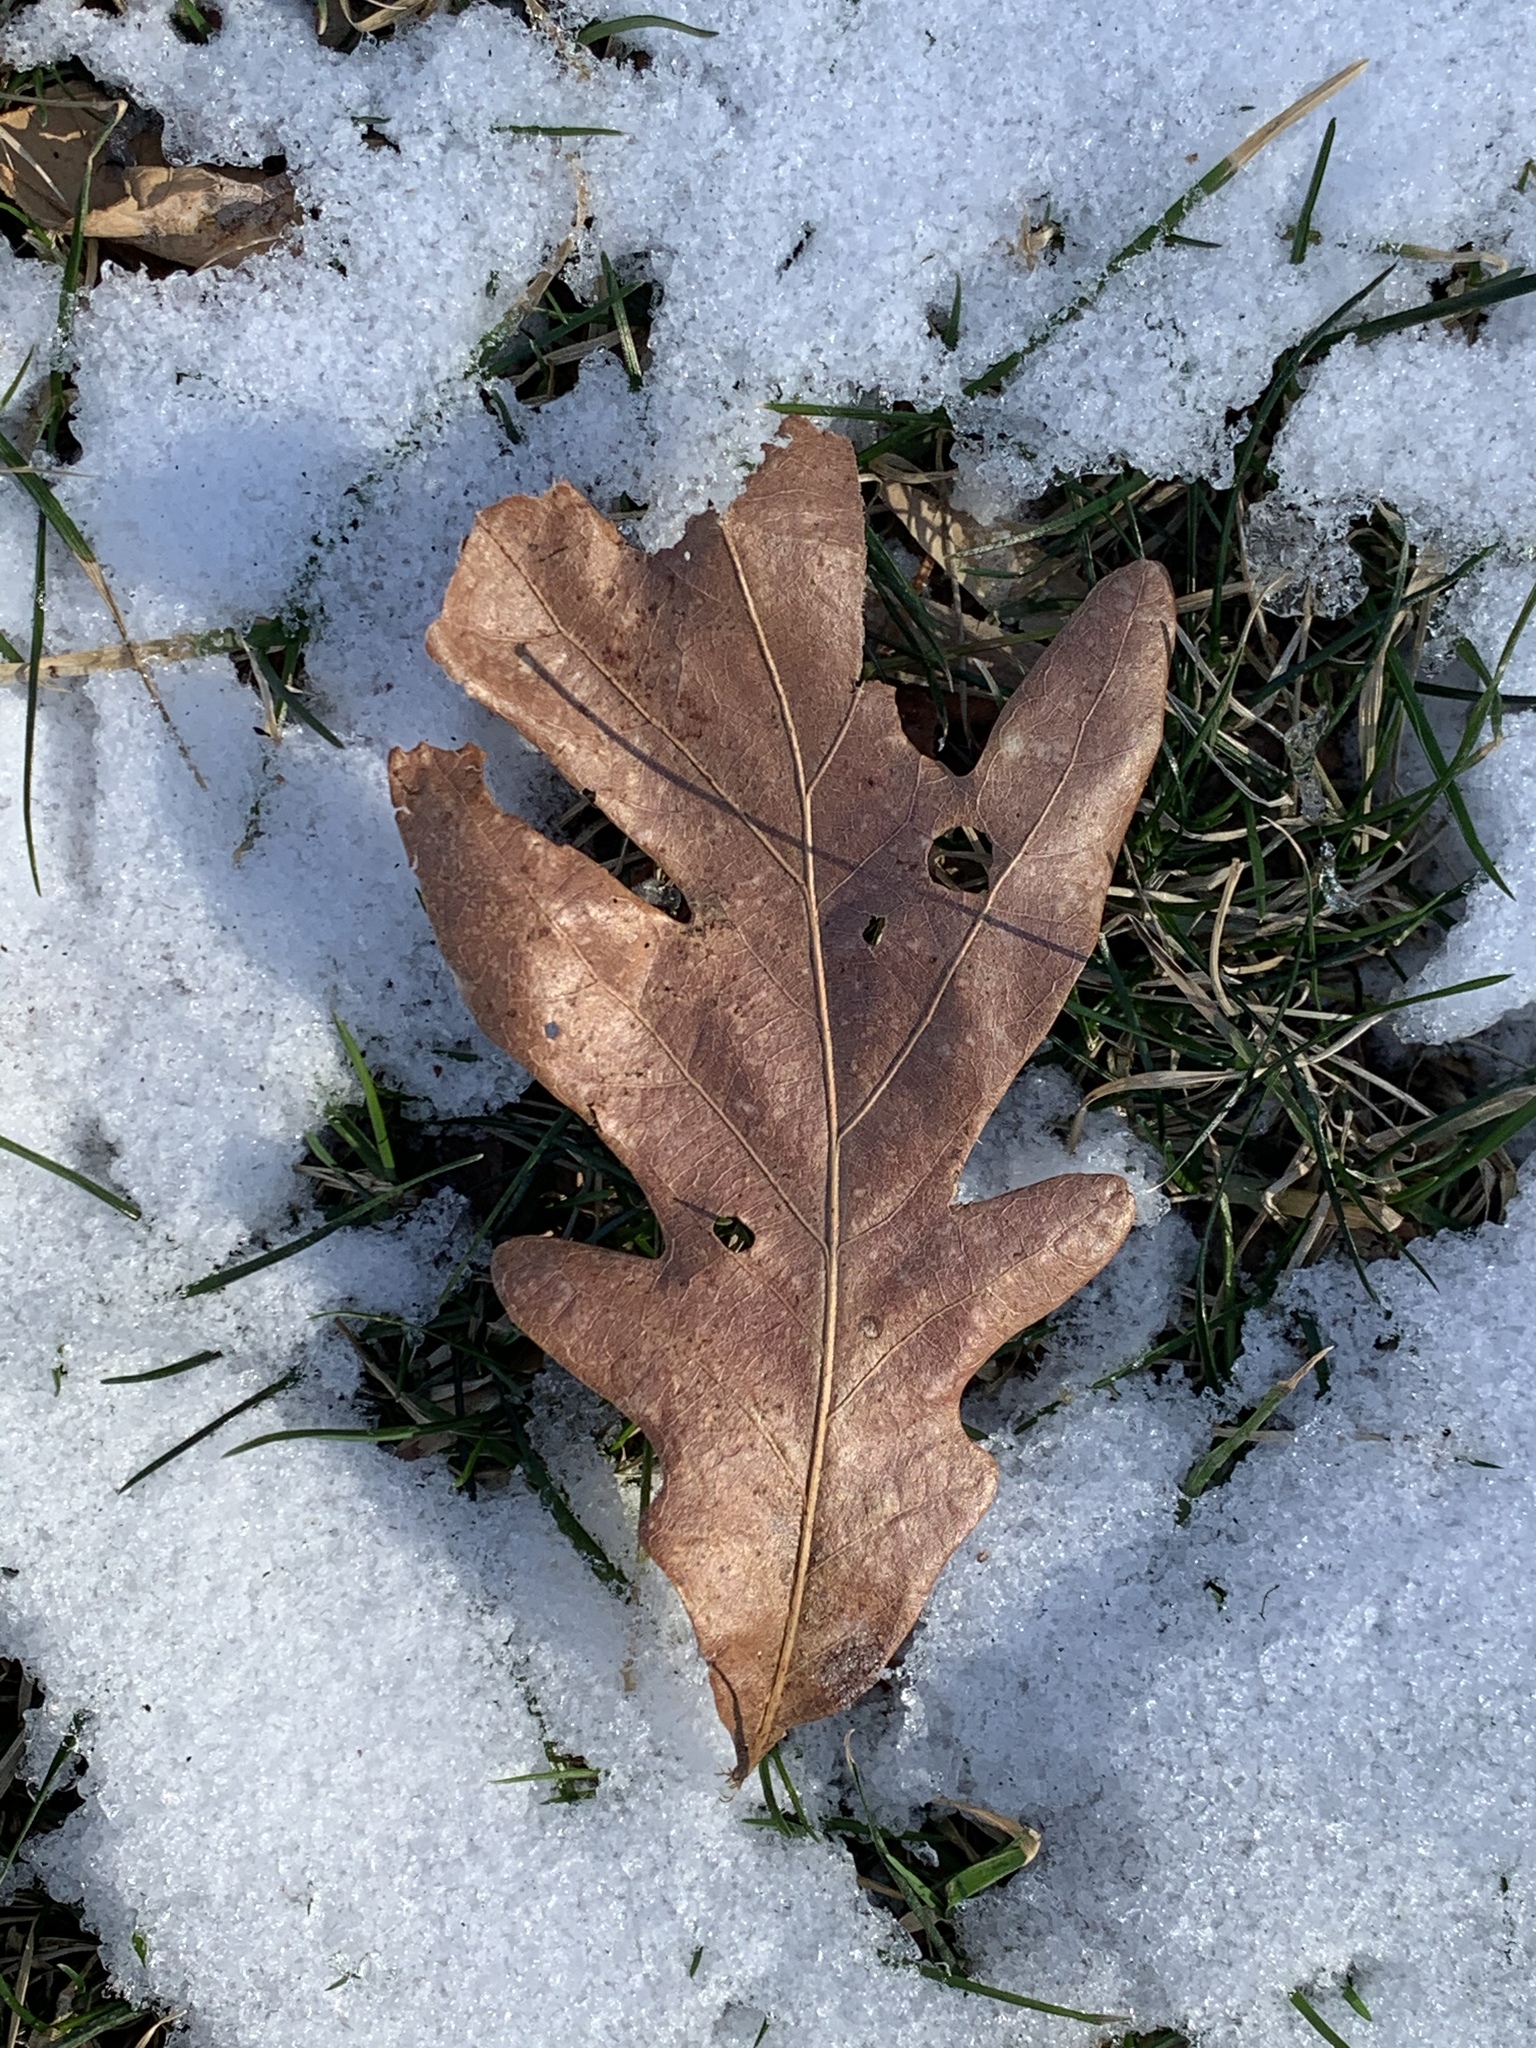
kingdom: Plantae
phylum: Tracheophyta
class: Magnoliopsida
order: Fagales
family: Fagaceae
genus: Quercus
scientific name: Quercus alba
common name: White oak
